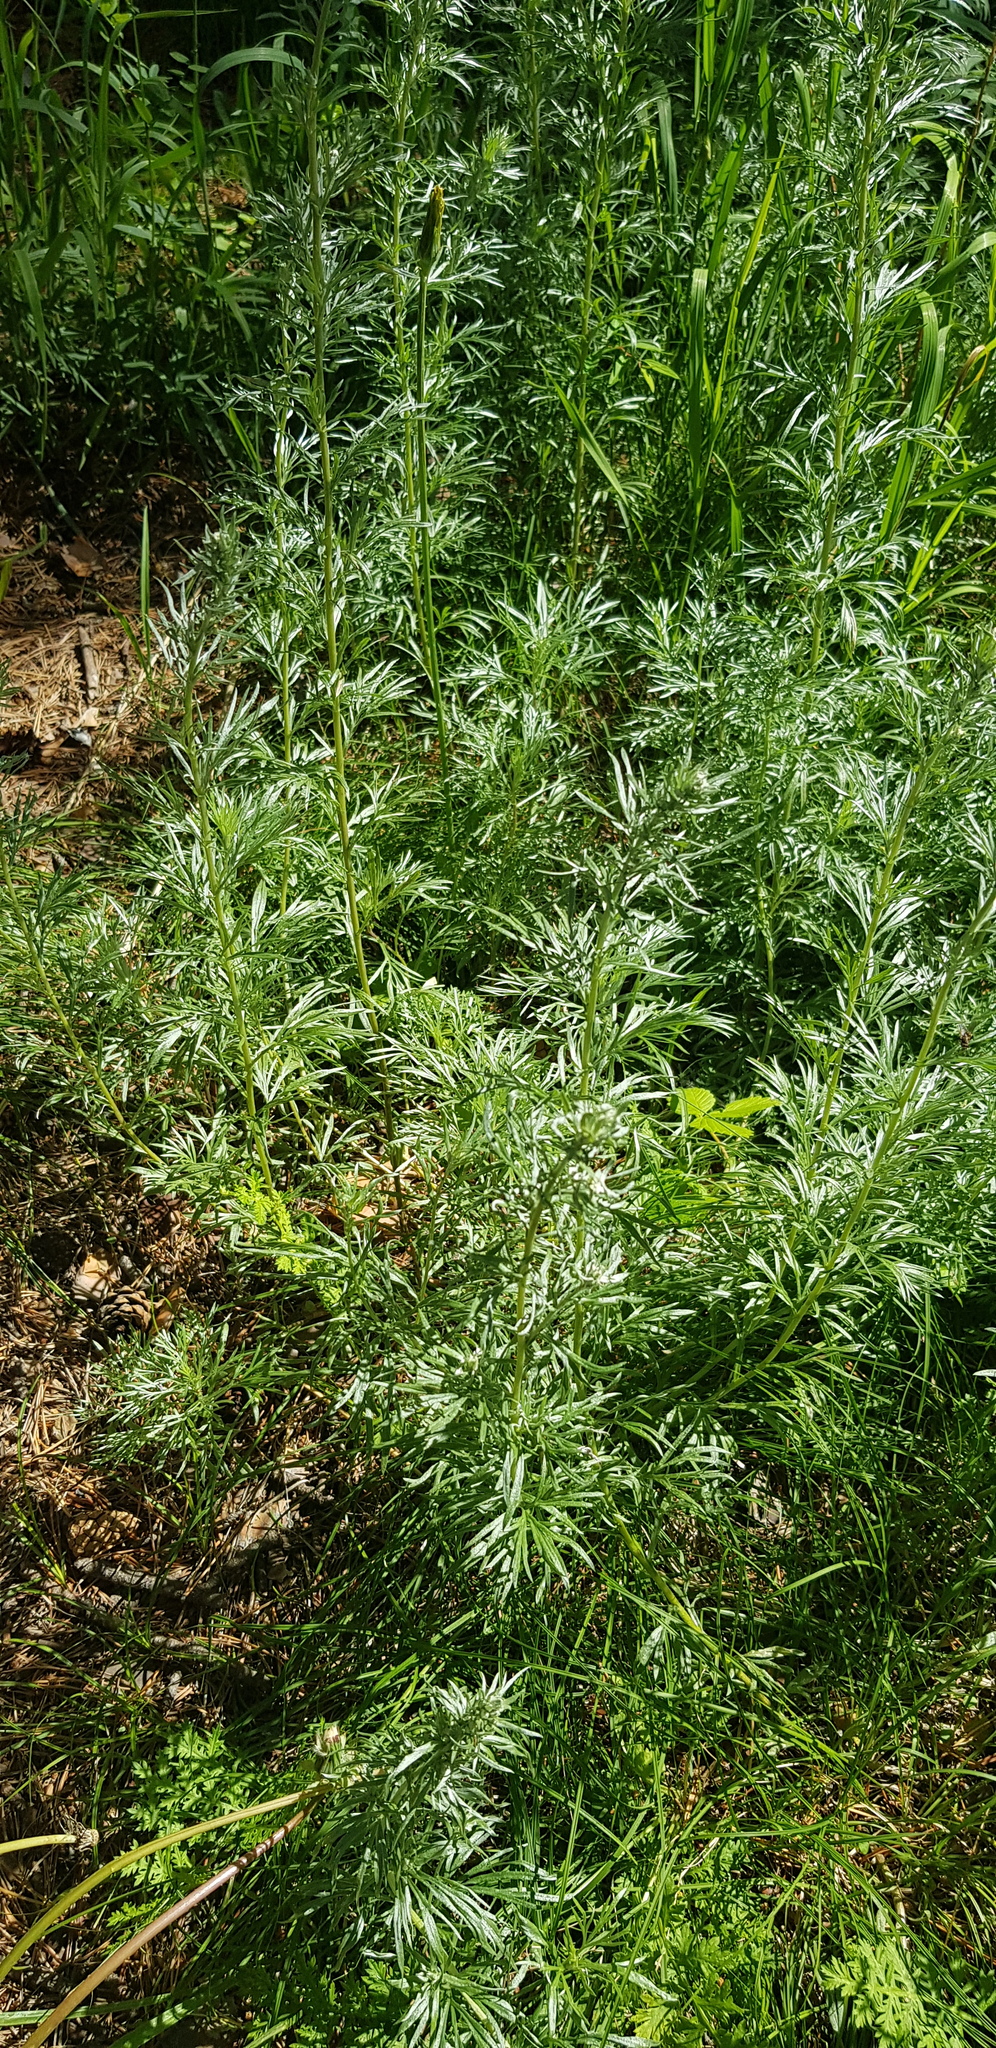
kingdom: Plantae
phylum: Tracheophyta
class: Magnoliopsida
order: Asterales
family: Asteraceae
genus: Artemisia
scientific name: Artemisia sieversiana
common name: Sieversian wormwood
